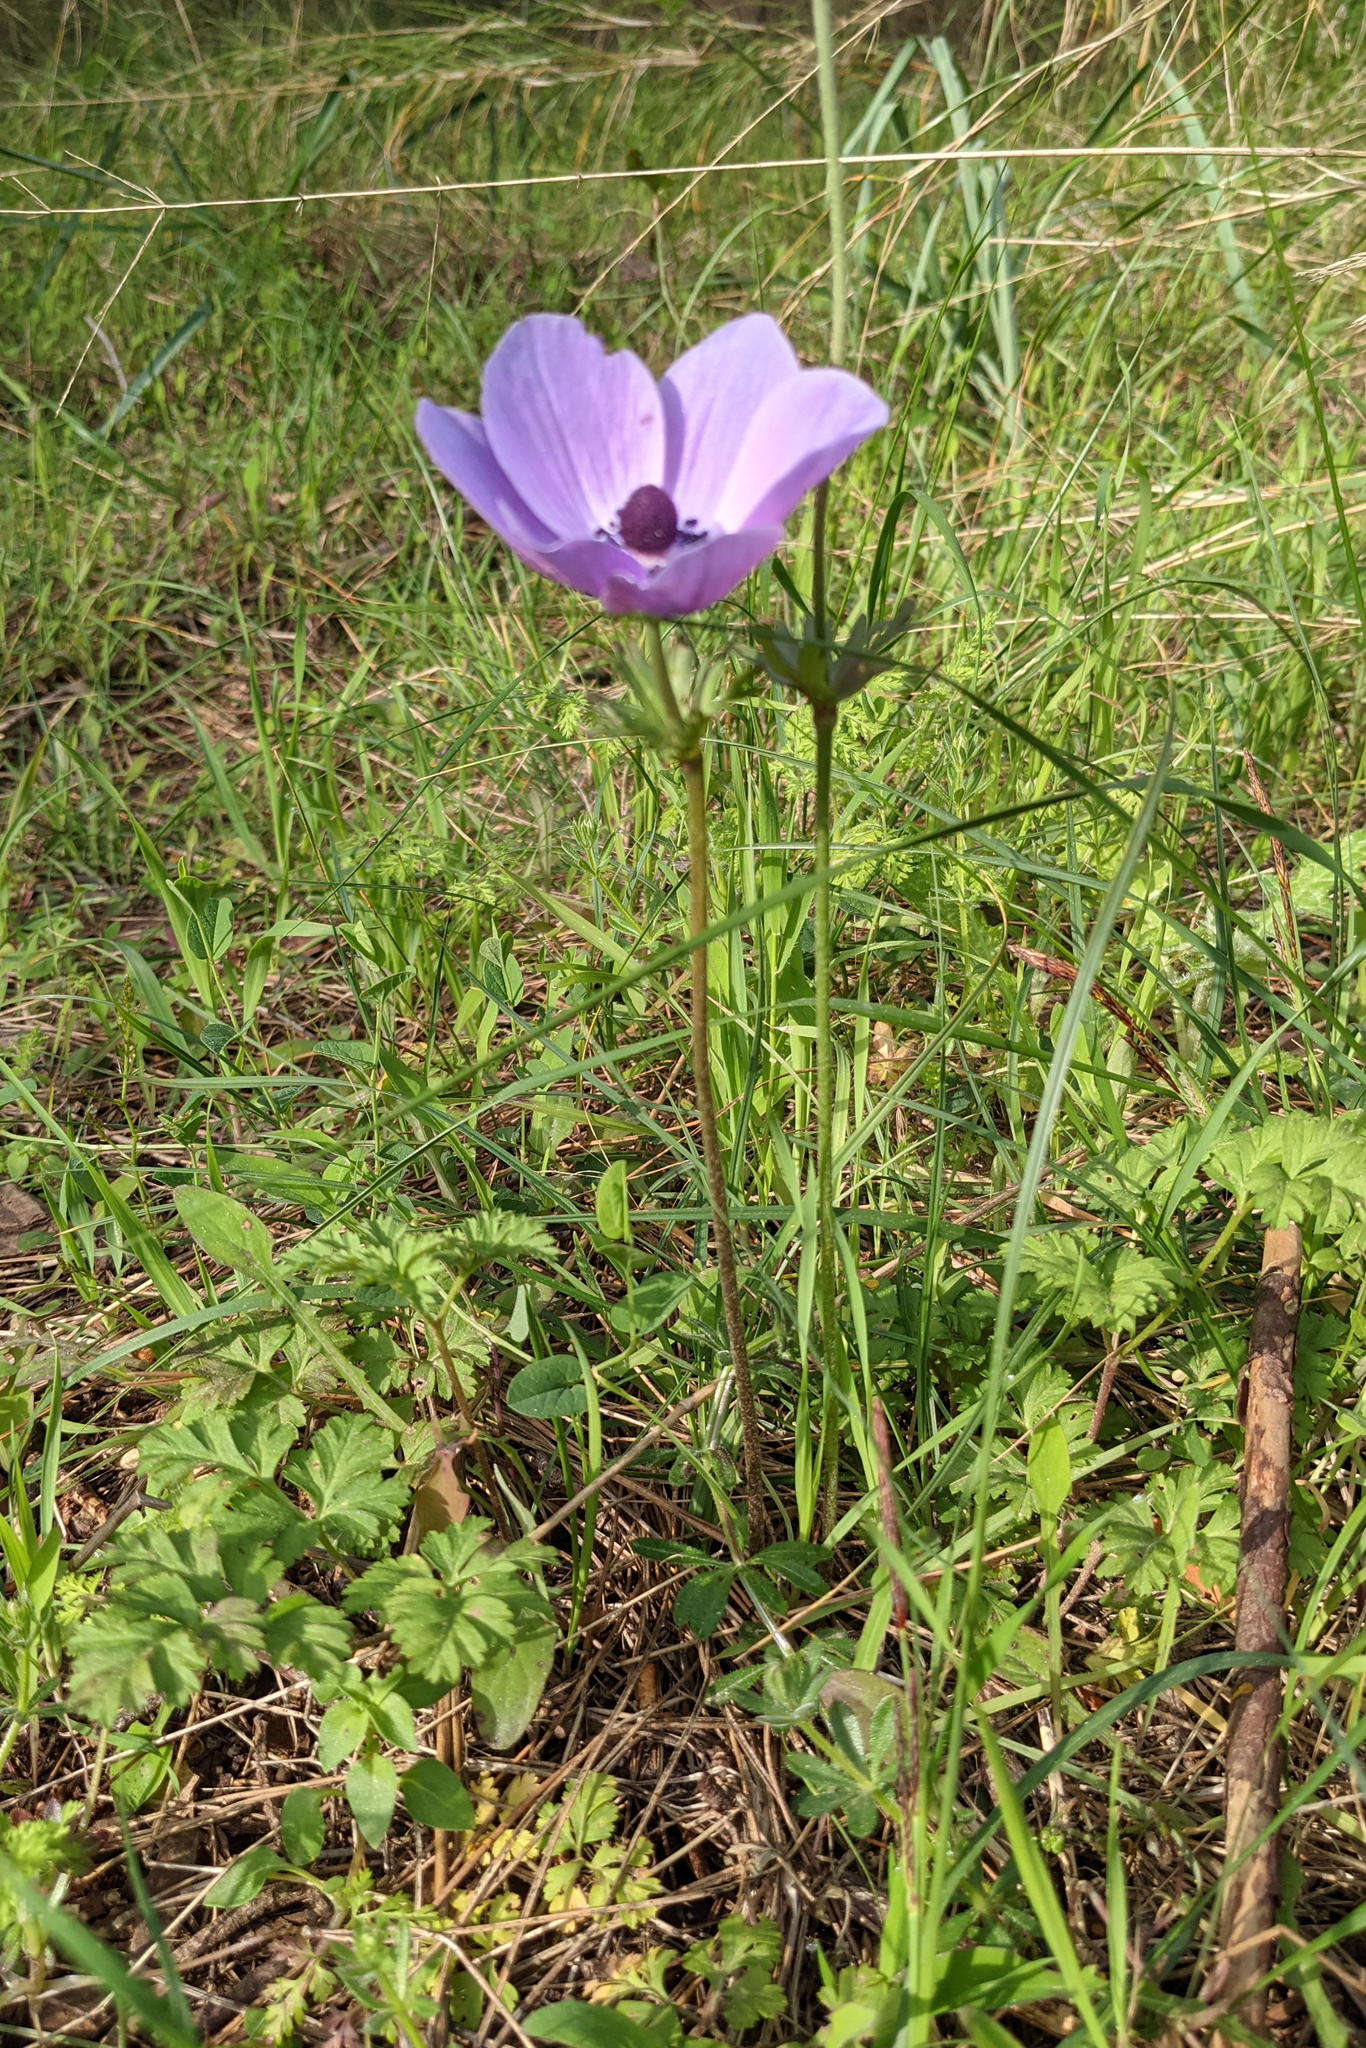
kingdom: Plantae
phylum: Tracheophyta
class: Magnoliopsida
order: Ranunculales
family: Ranunculaceae
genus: Anemone
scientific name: Anemone coronaria
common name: Poppy anemone
